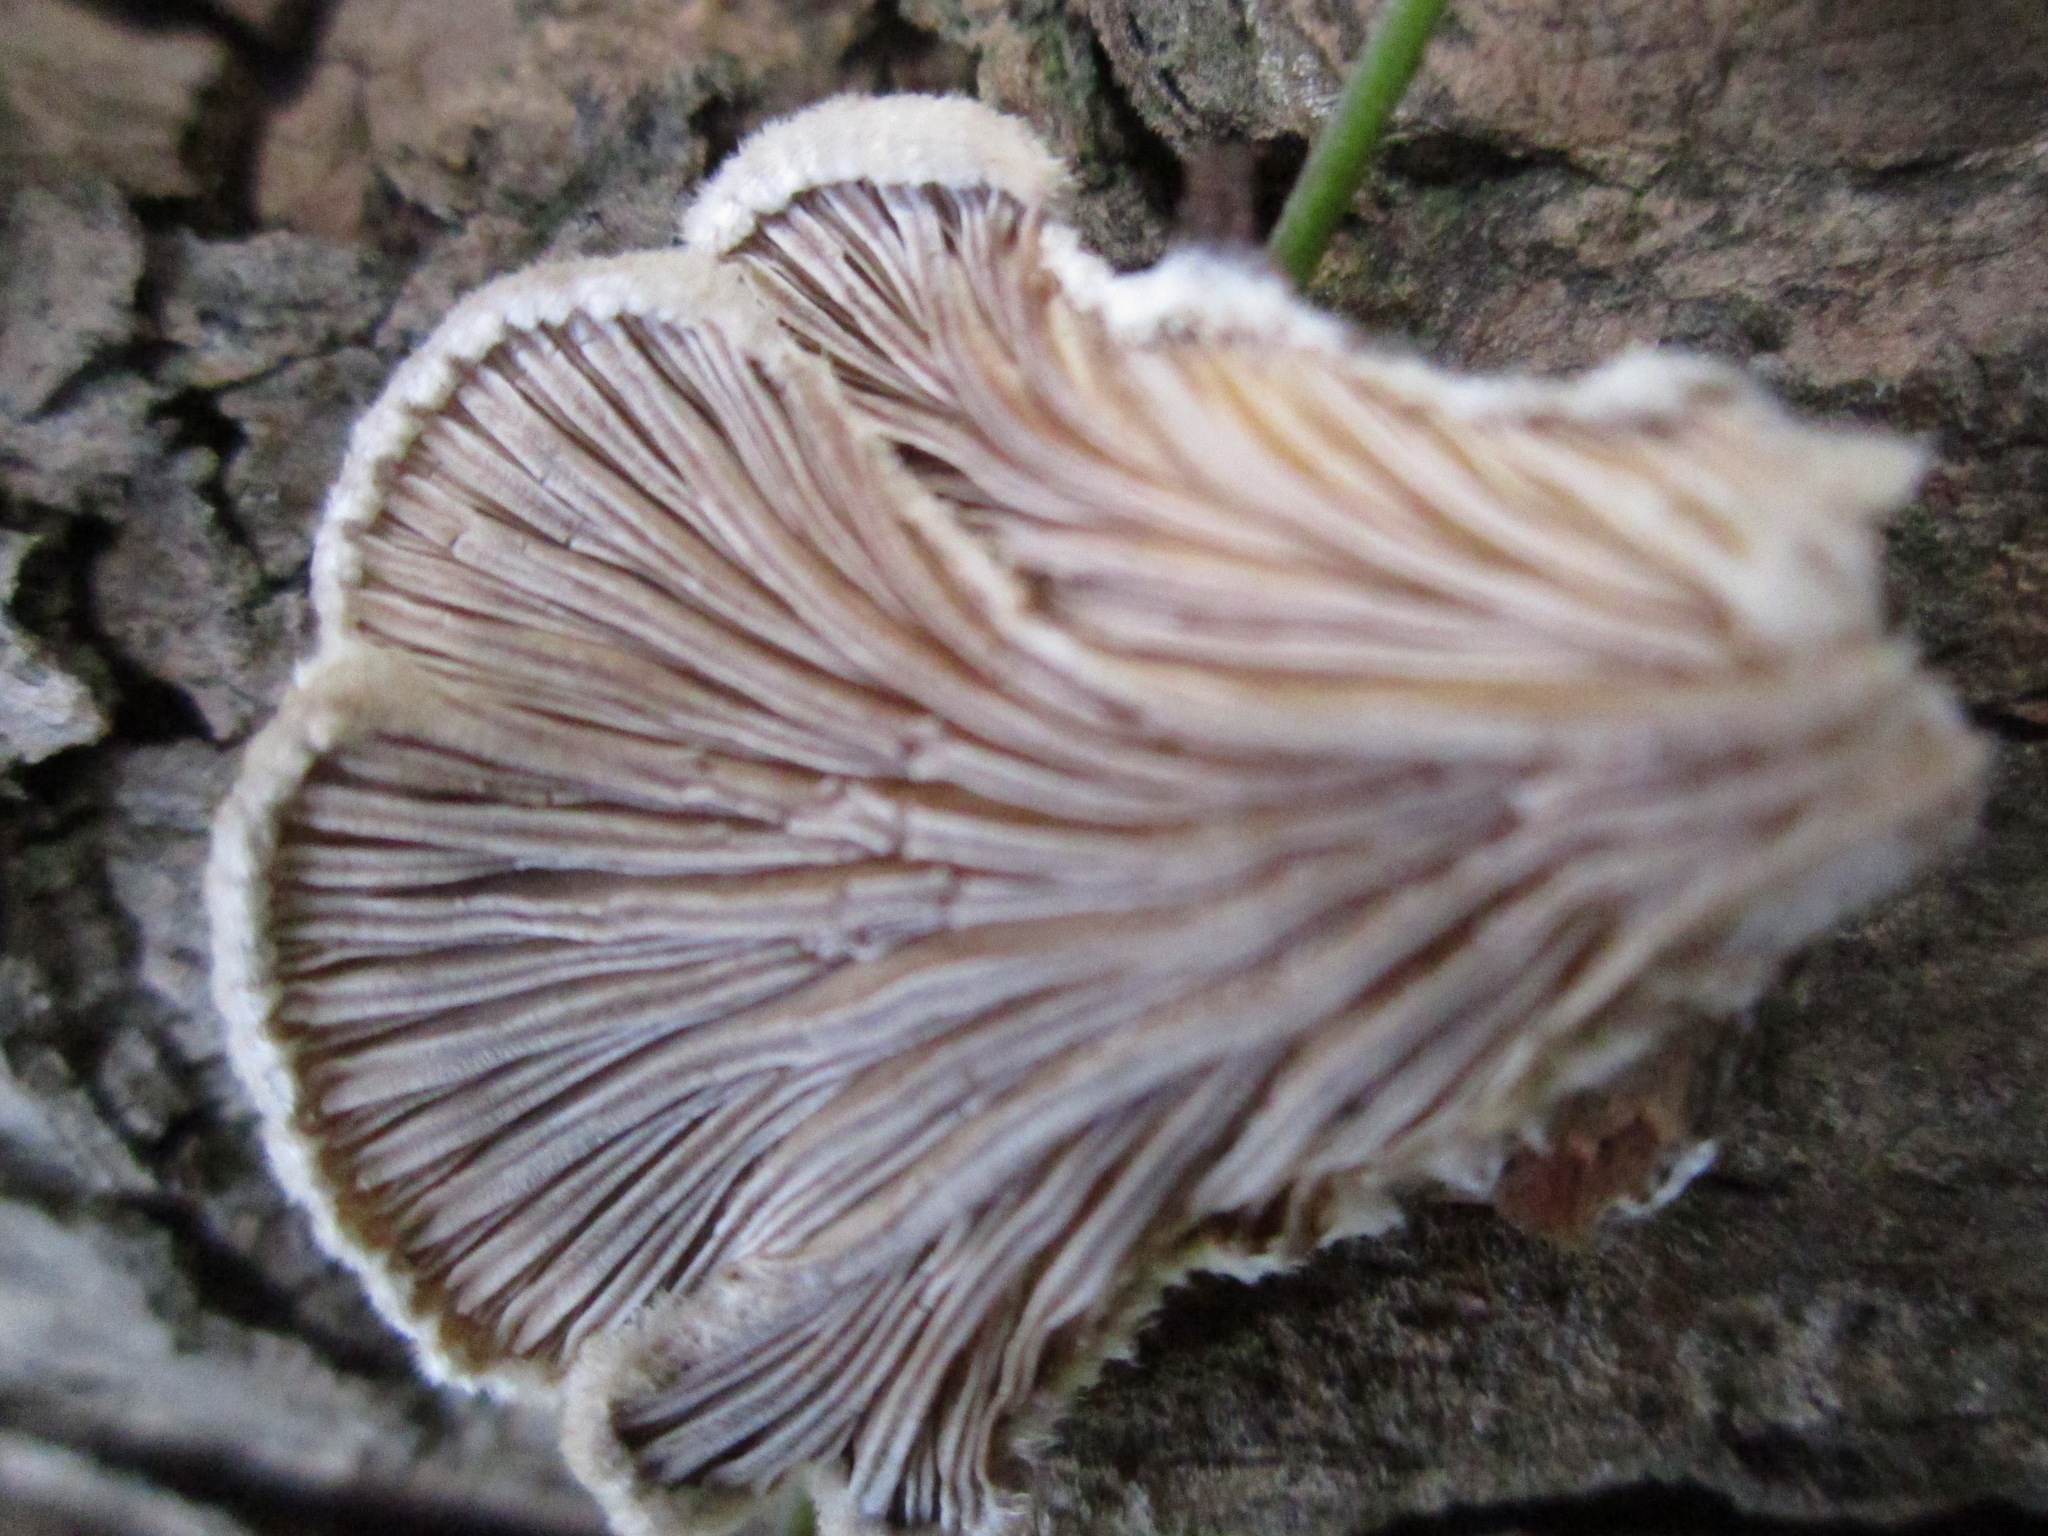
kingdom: Fungi
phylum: Basidiomycota
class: Agaricomycetes
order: Agaricales
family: Schizophyllaceae
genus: Schizophyllum
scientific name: Schizophyllum commune
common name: Common porecrust
